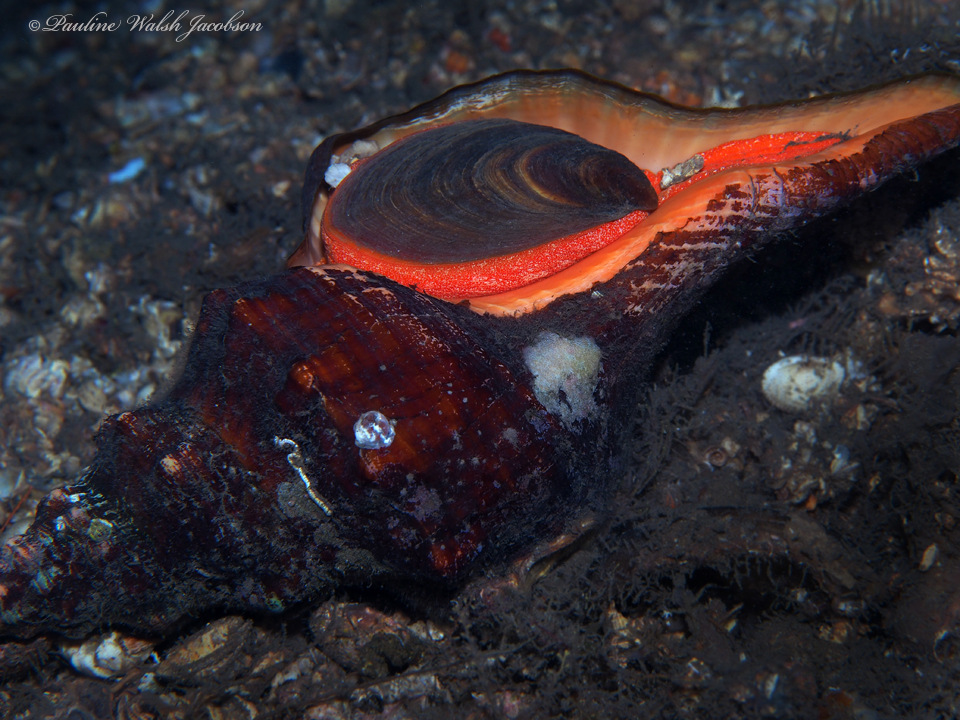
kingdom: Animalia
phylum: Mollusca
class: Gastropoda
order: Neogastropoda
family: Fasciolariidae
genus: Triplofusus
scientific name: Triplofusus giganteus
